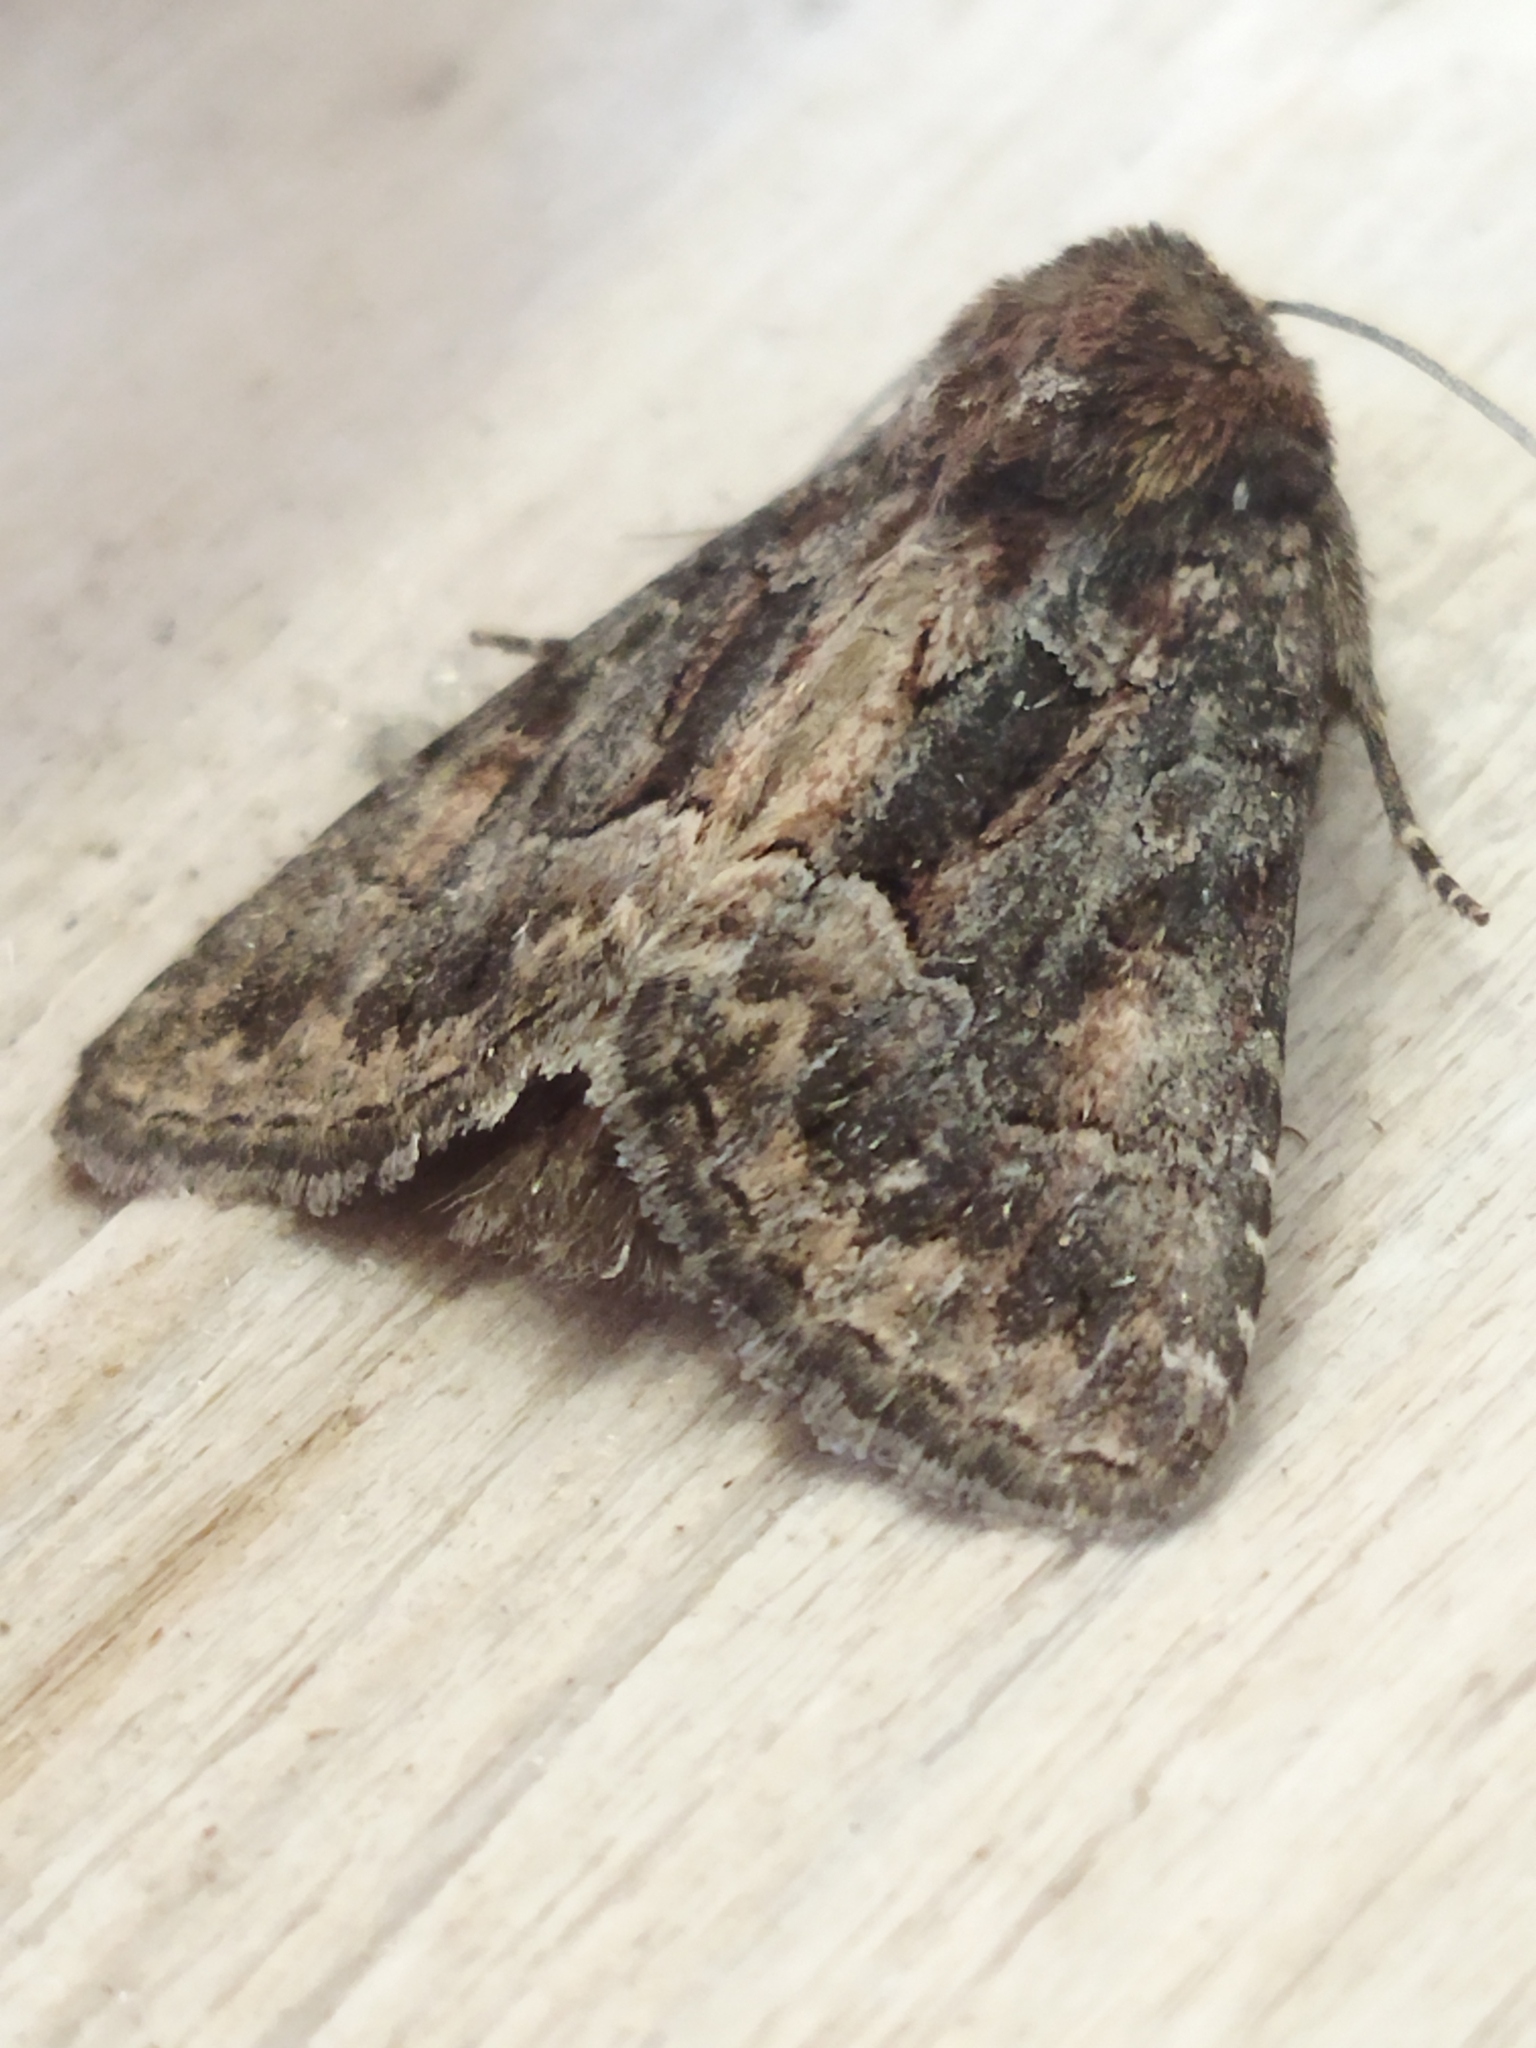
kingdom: Animalia
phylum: Arthropoda
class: Insecta
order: Lepidoptera
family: Noctuidae
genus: Thalpophila
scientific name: Thalpophila matura
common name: Straw underwing
